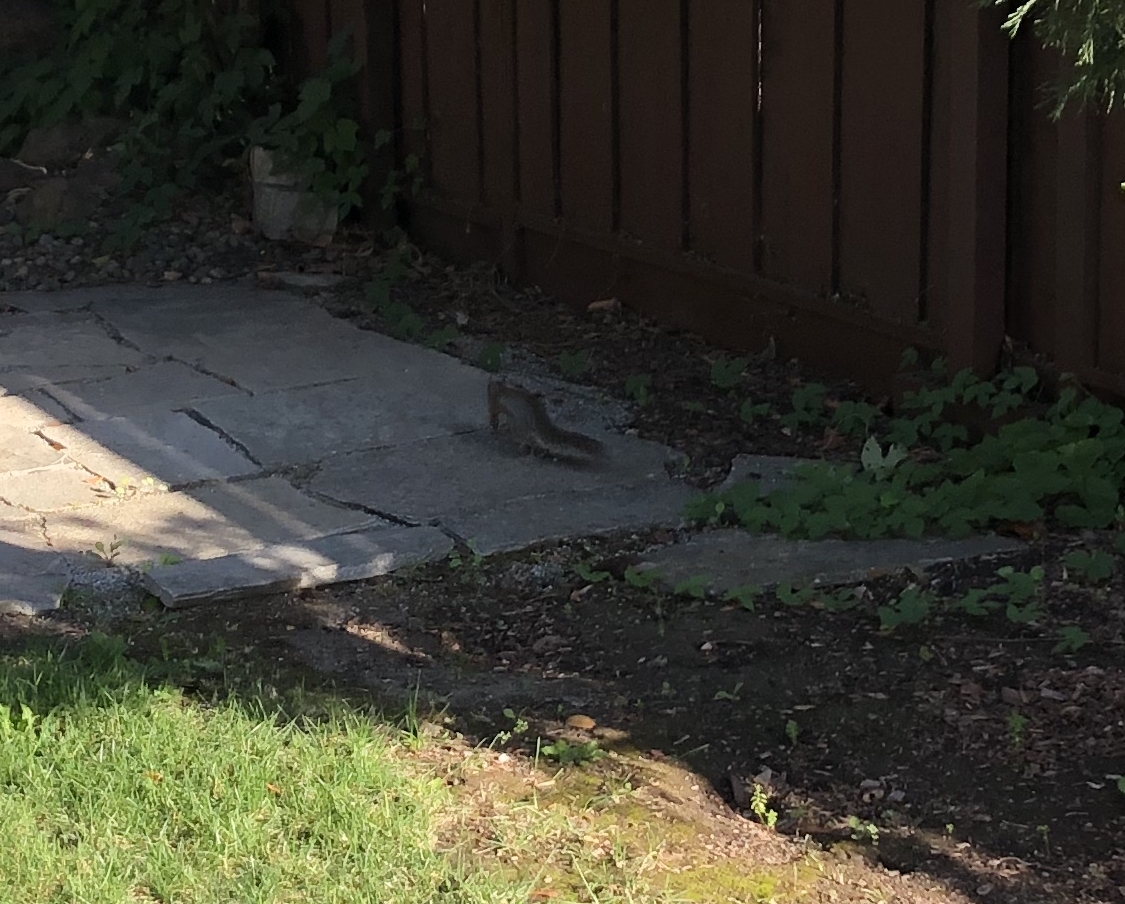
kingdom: Animalia
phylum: Chordata
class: Mammalia
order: Rodentia
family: Sciuridae
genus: Sciurus
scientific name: Sciurus carolinensis
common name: Eastern gray squirrel
